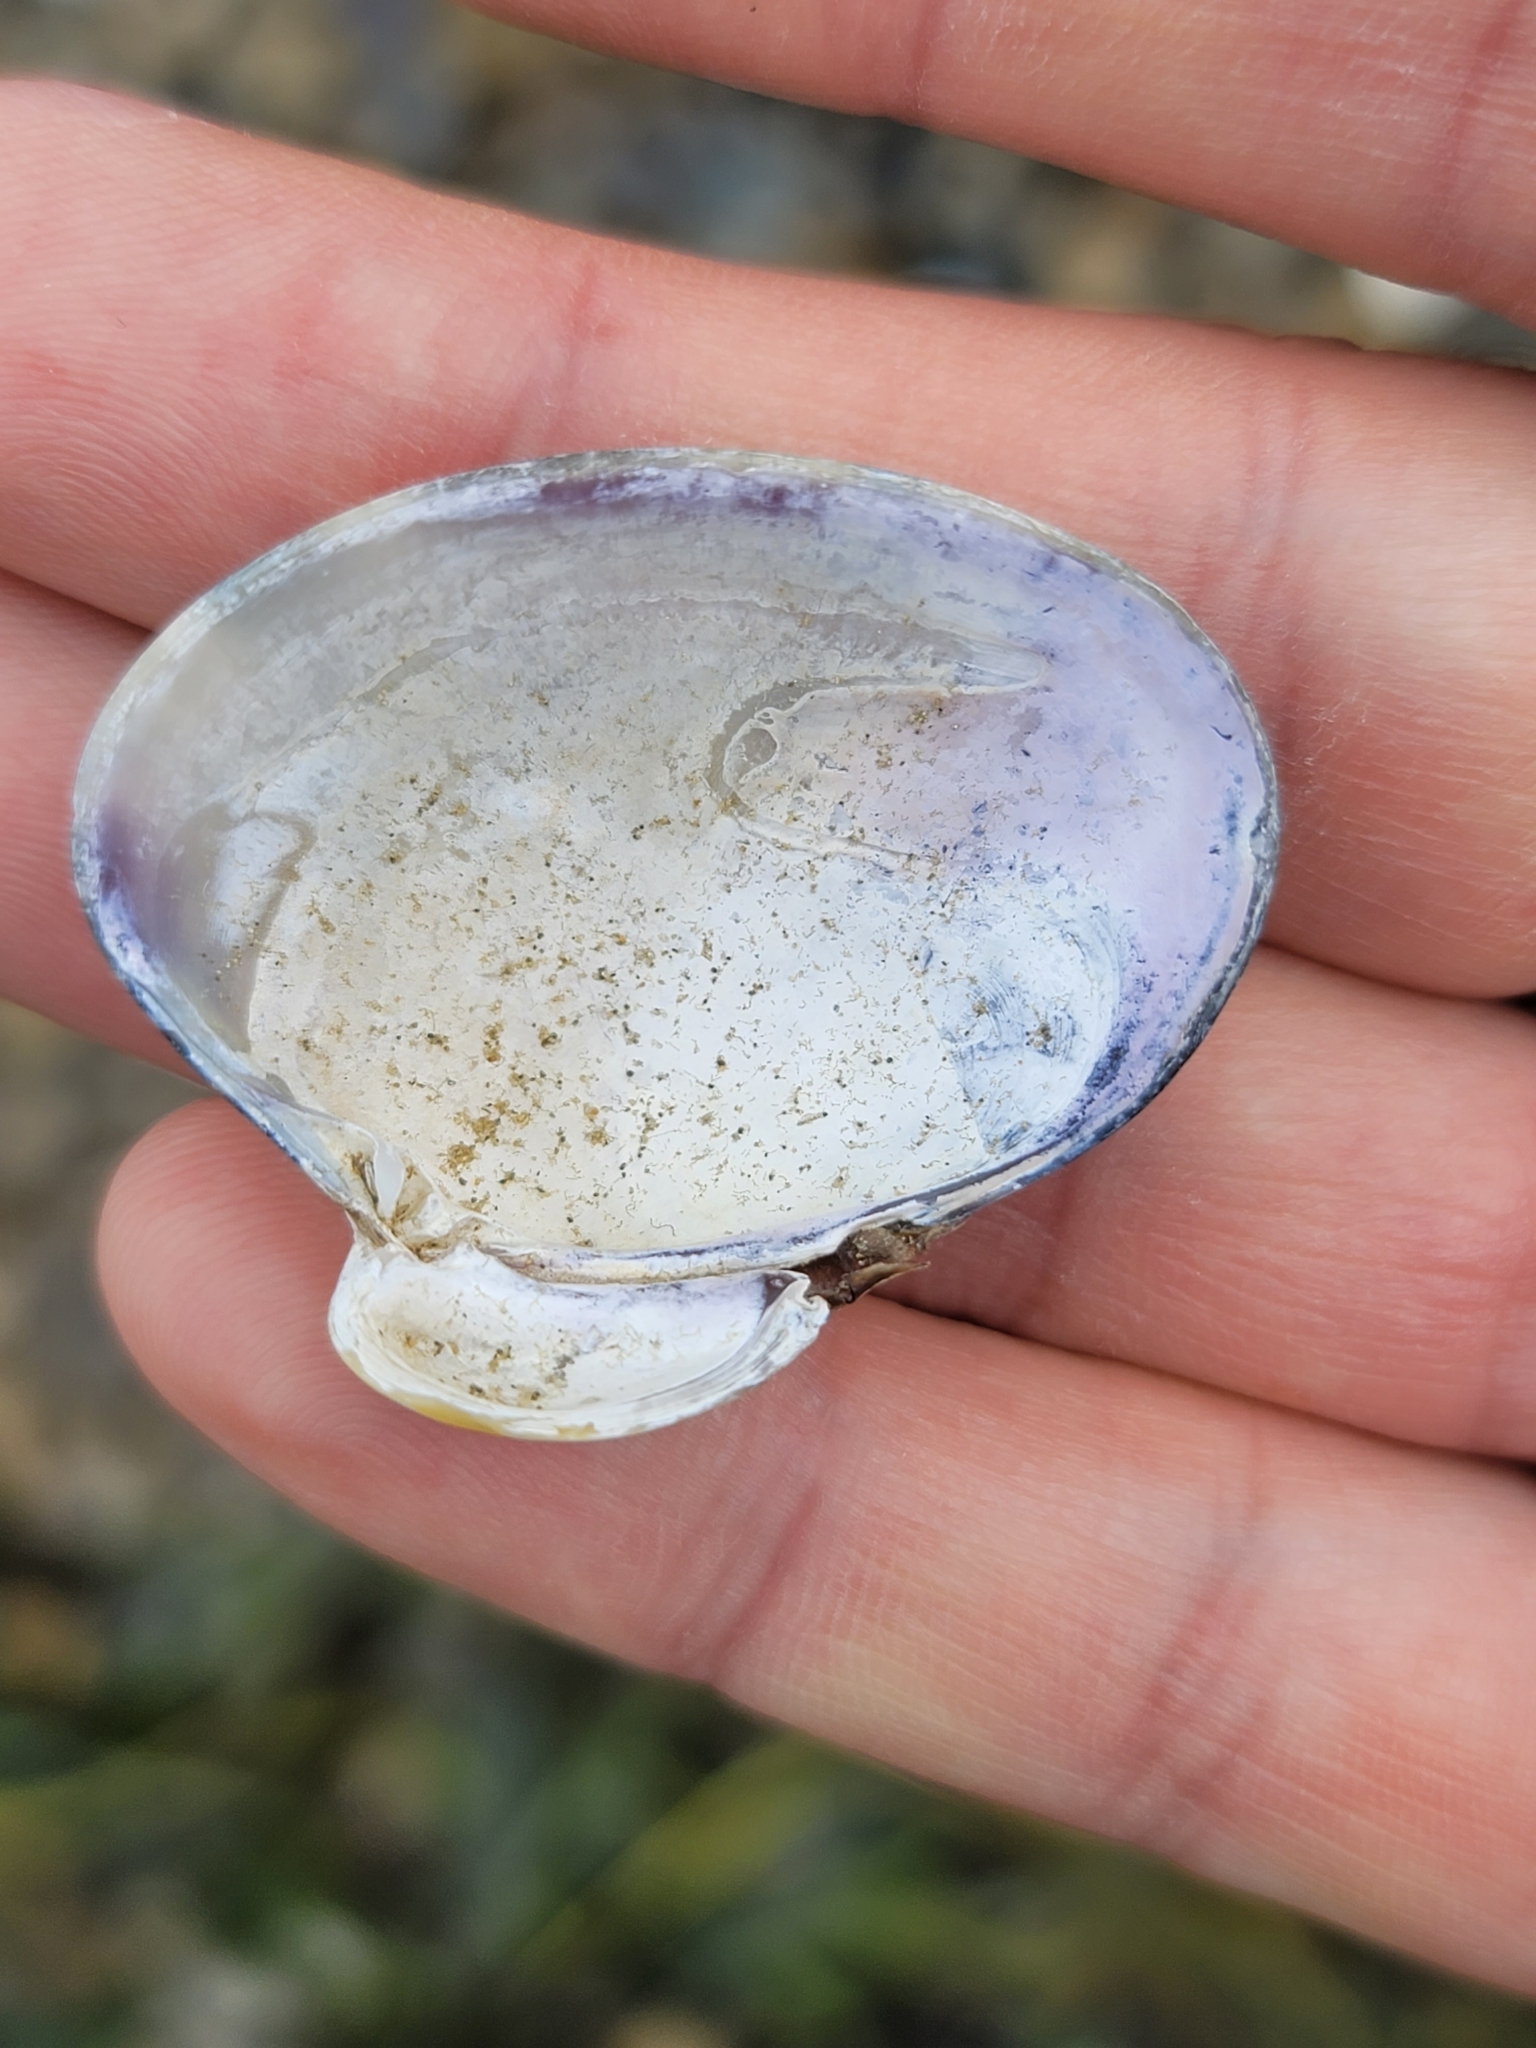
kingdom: Animalia
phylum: Mollusca
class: Bivalvia
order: Venerida
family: Veneridae
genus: Ruditapes
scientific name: Ruditapes philippinarum
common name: Manila clam
